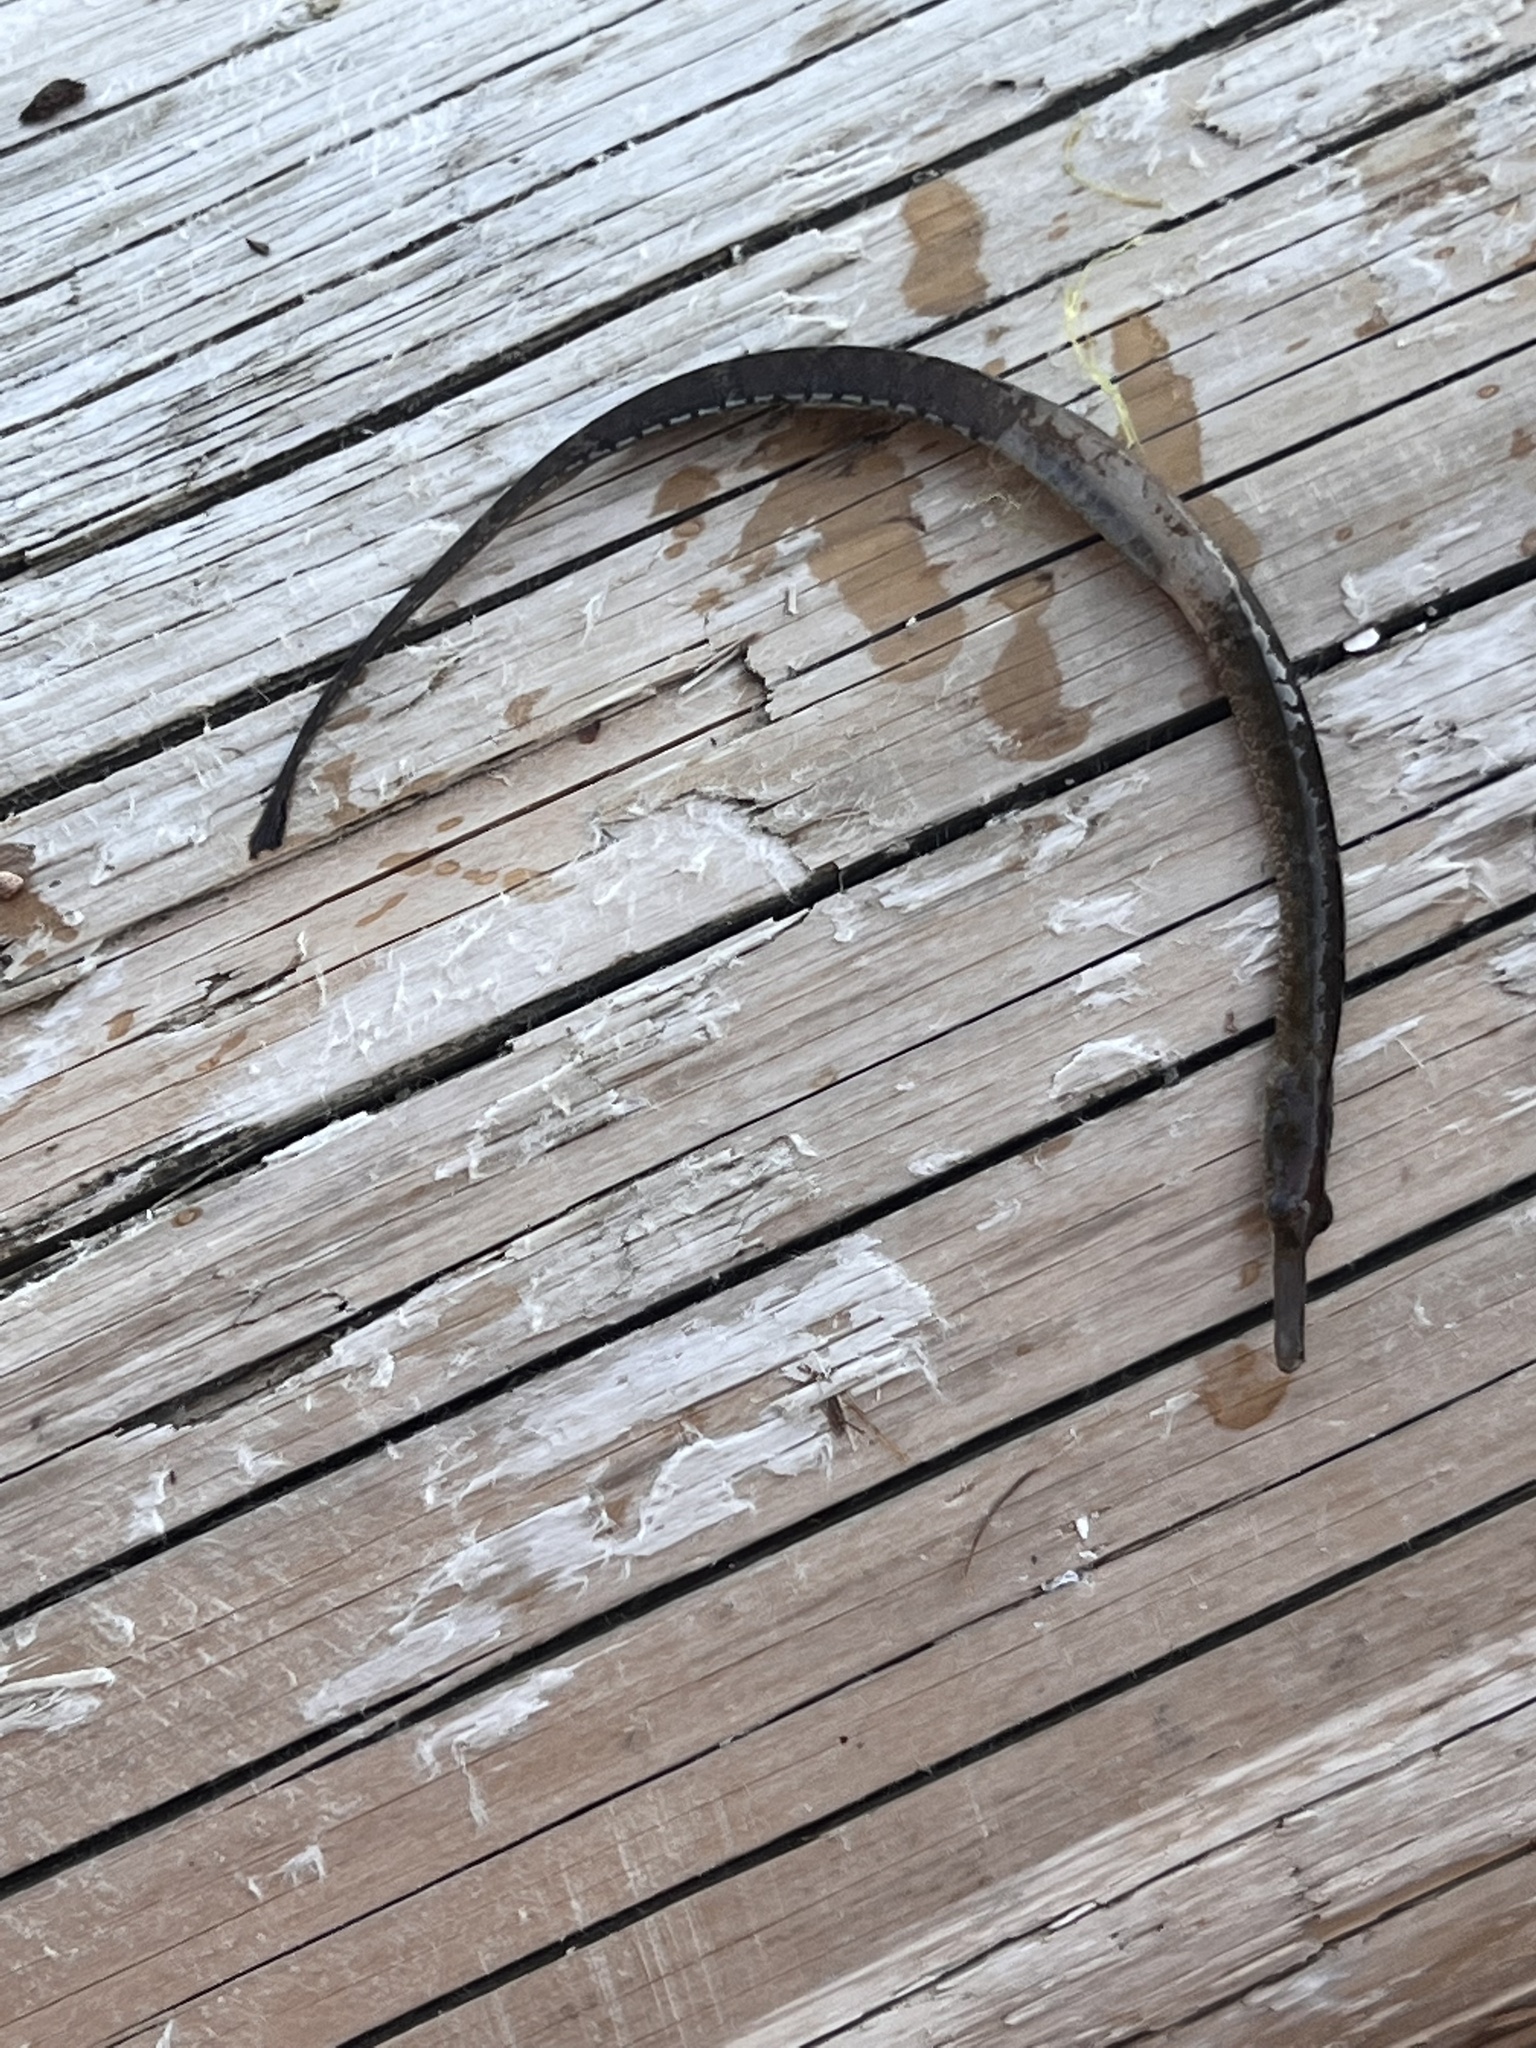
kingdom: Animalia
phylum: Chordata
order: Syngnathiformes
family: Syngnathidae
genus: Syngnathus
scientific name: Syngnathus californiensis
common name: Great pipefish
